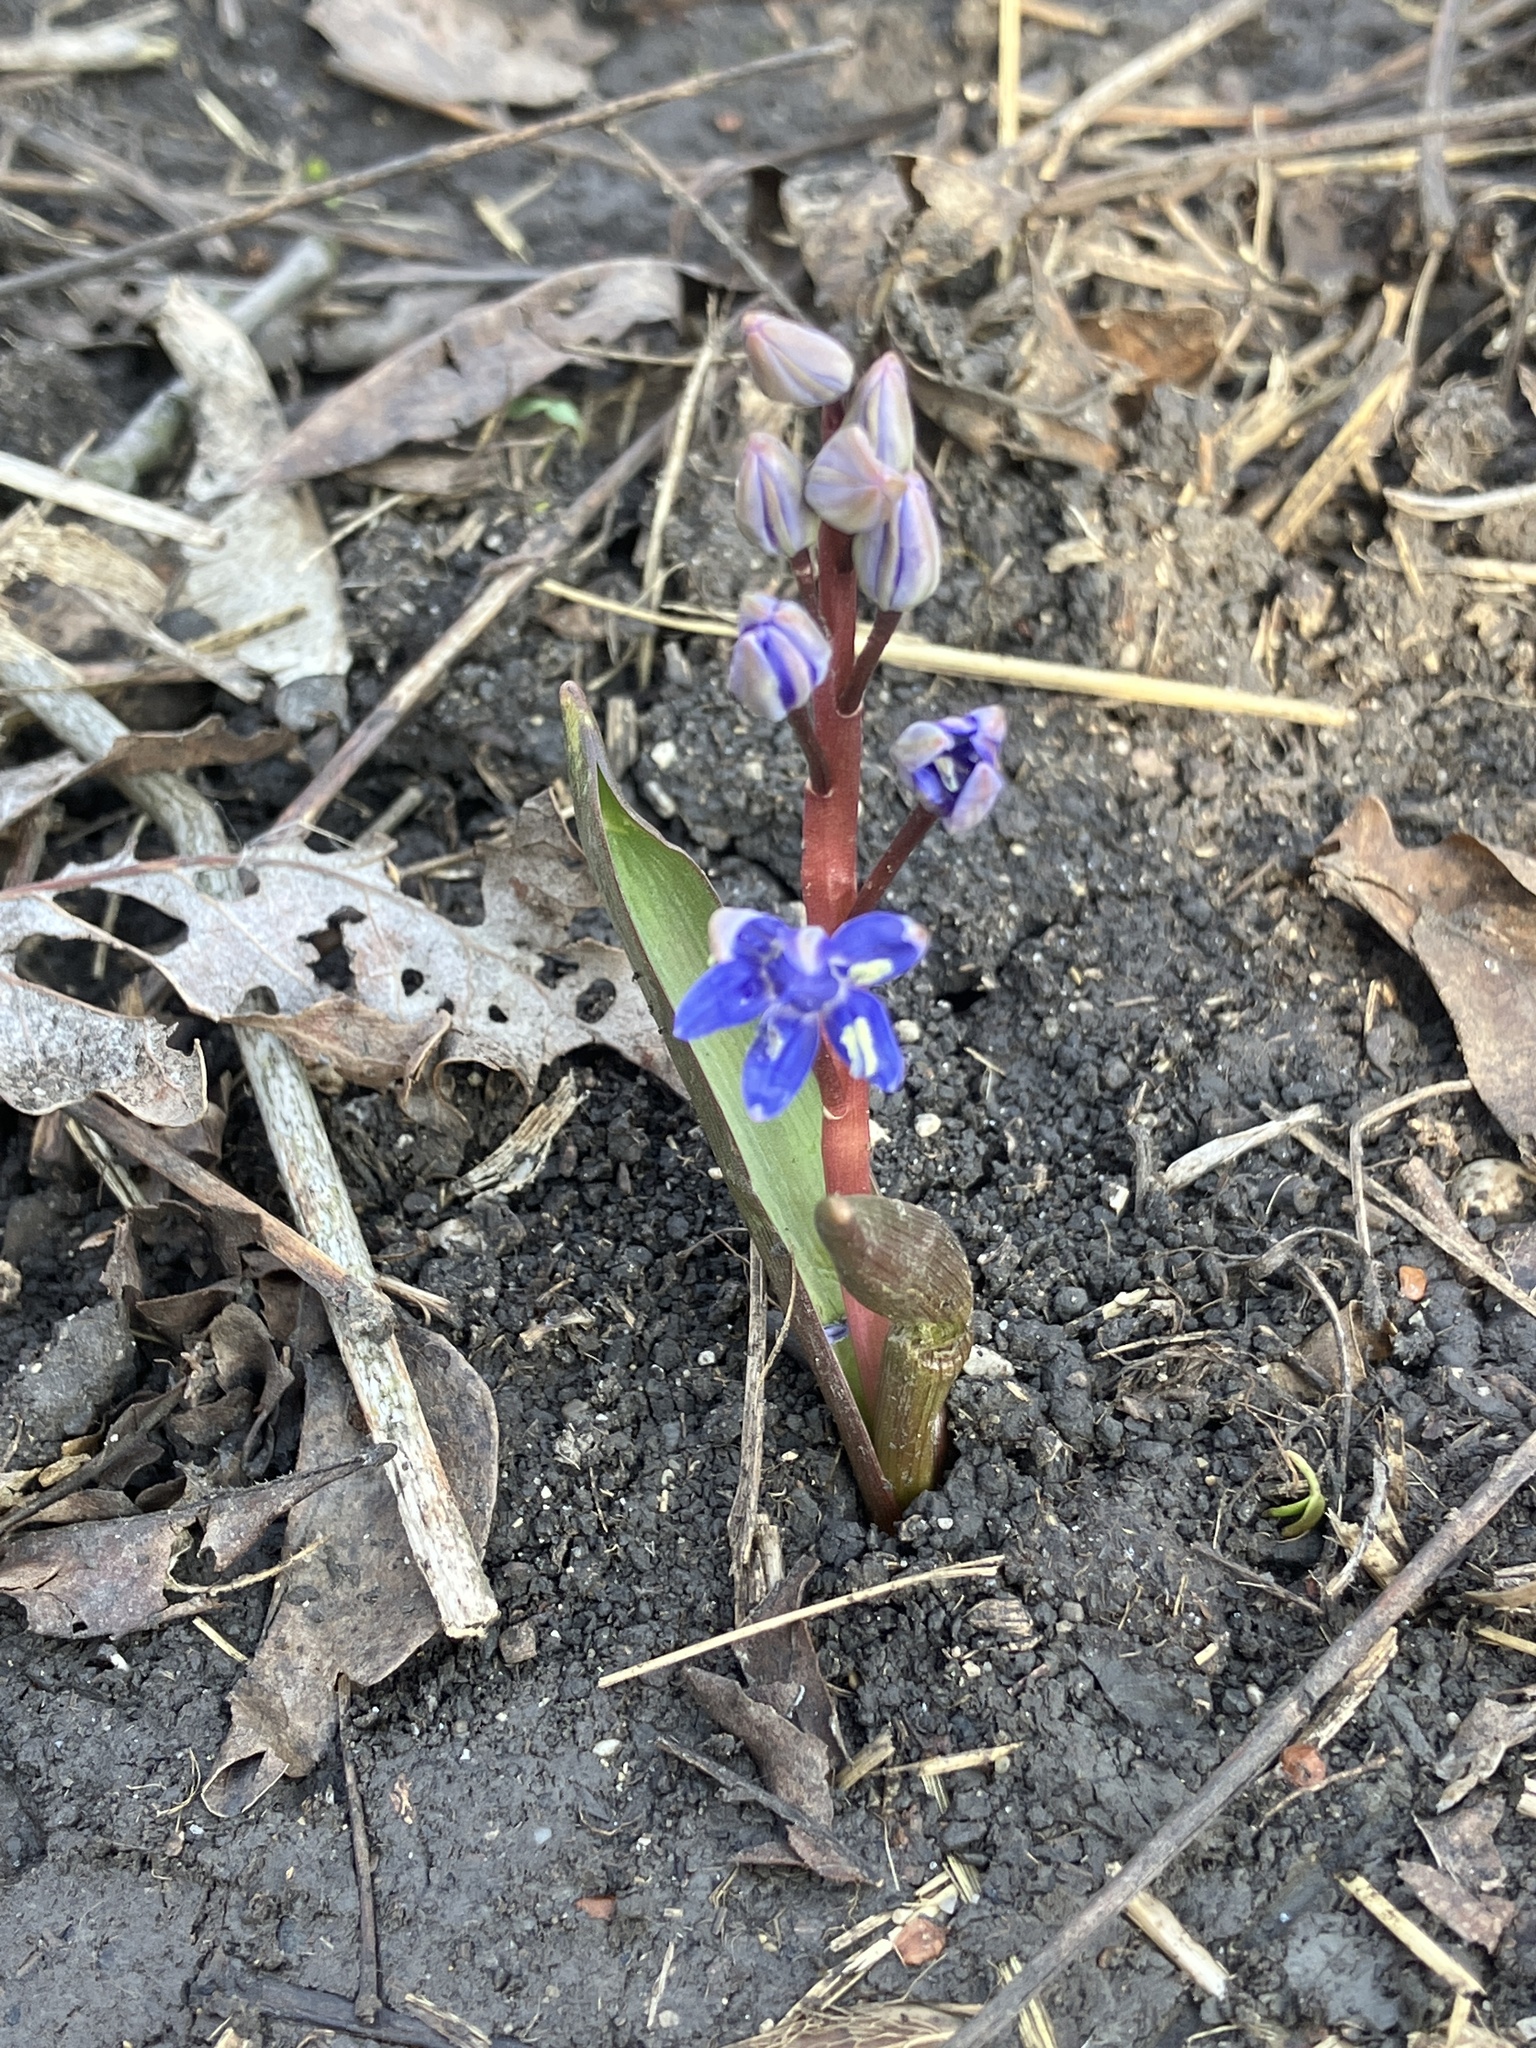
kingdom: Plantae
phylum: Tracheophyta
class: Liliopsida
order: Asparagales
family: Asparagaceae
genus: Scilla
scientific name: Scilla vindobonensis
